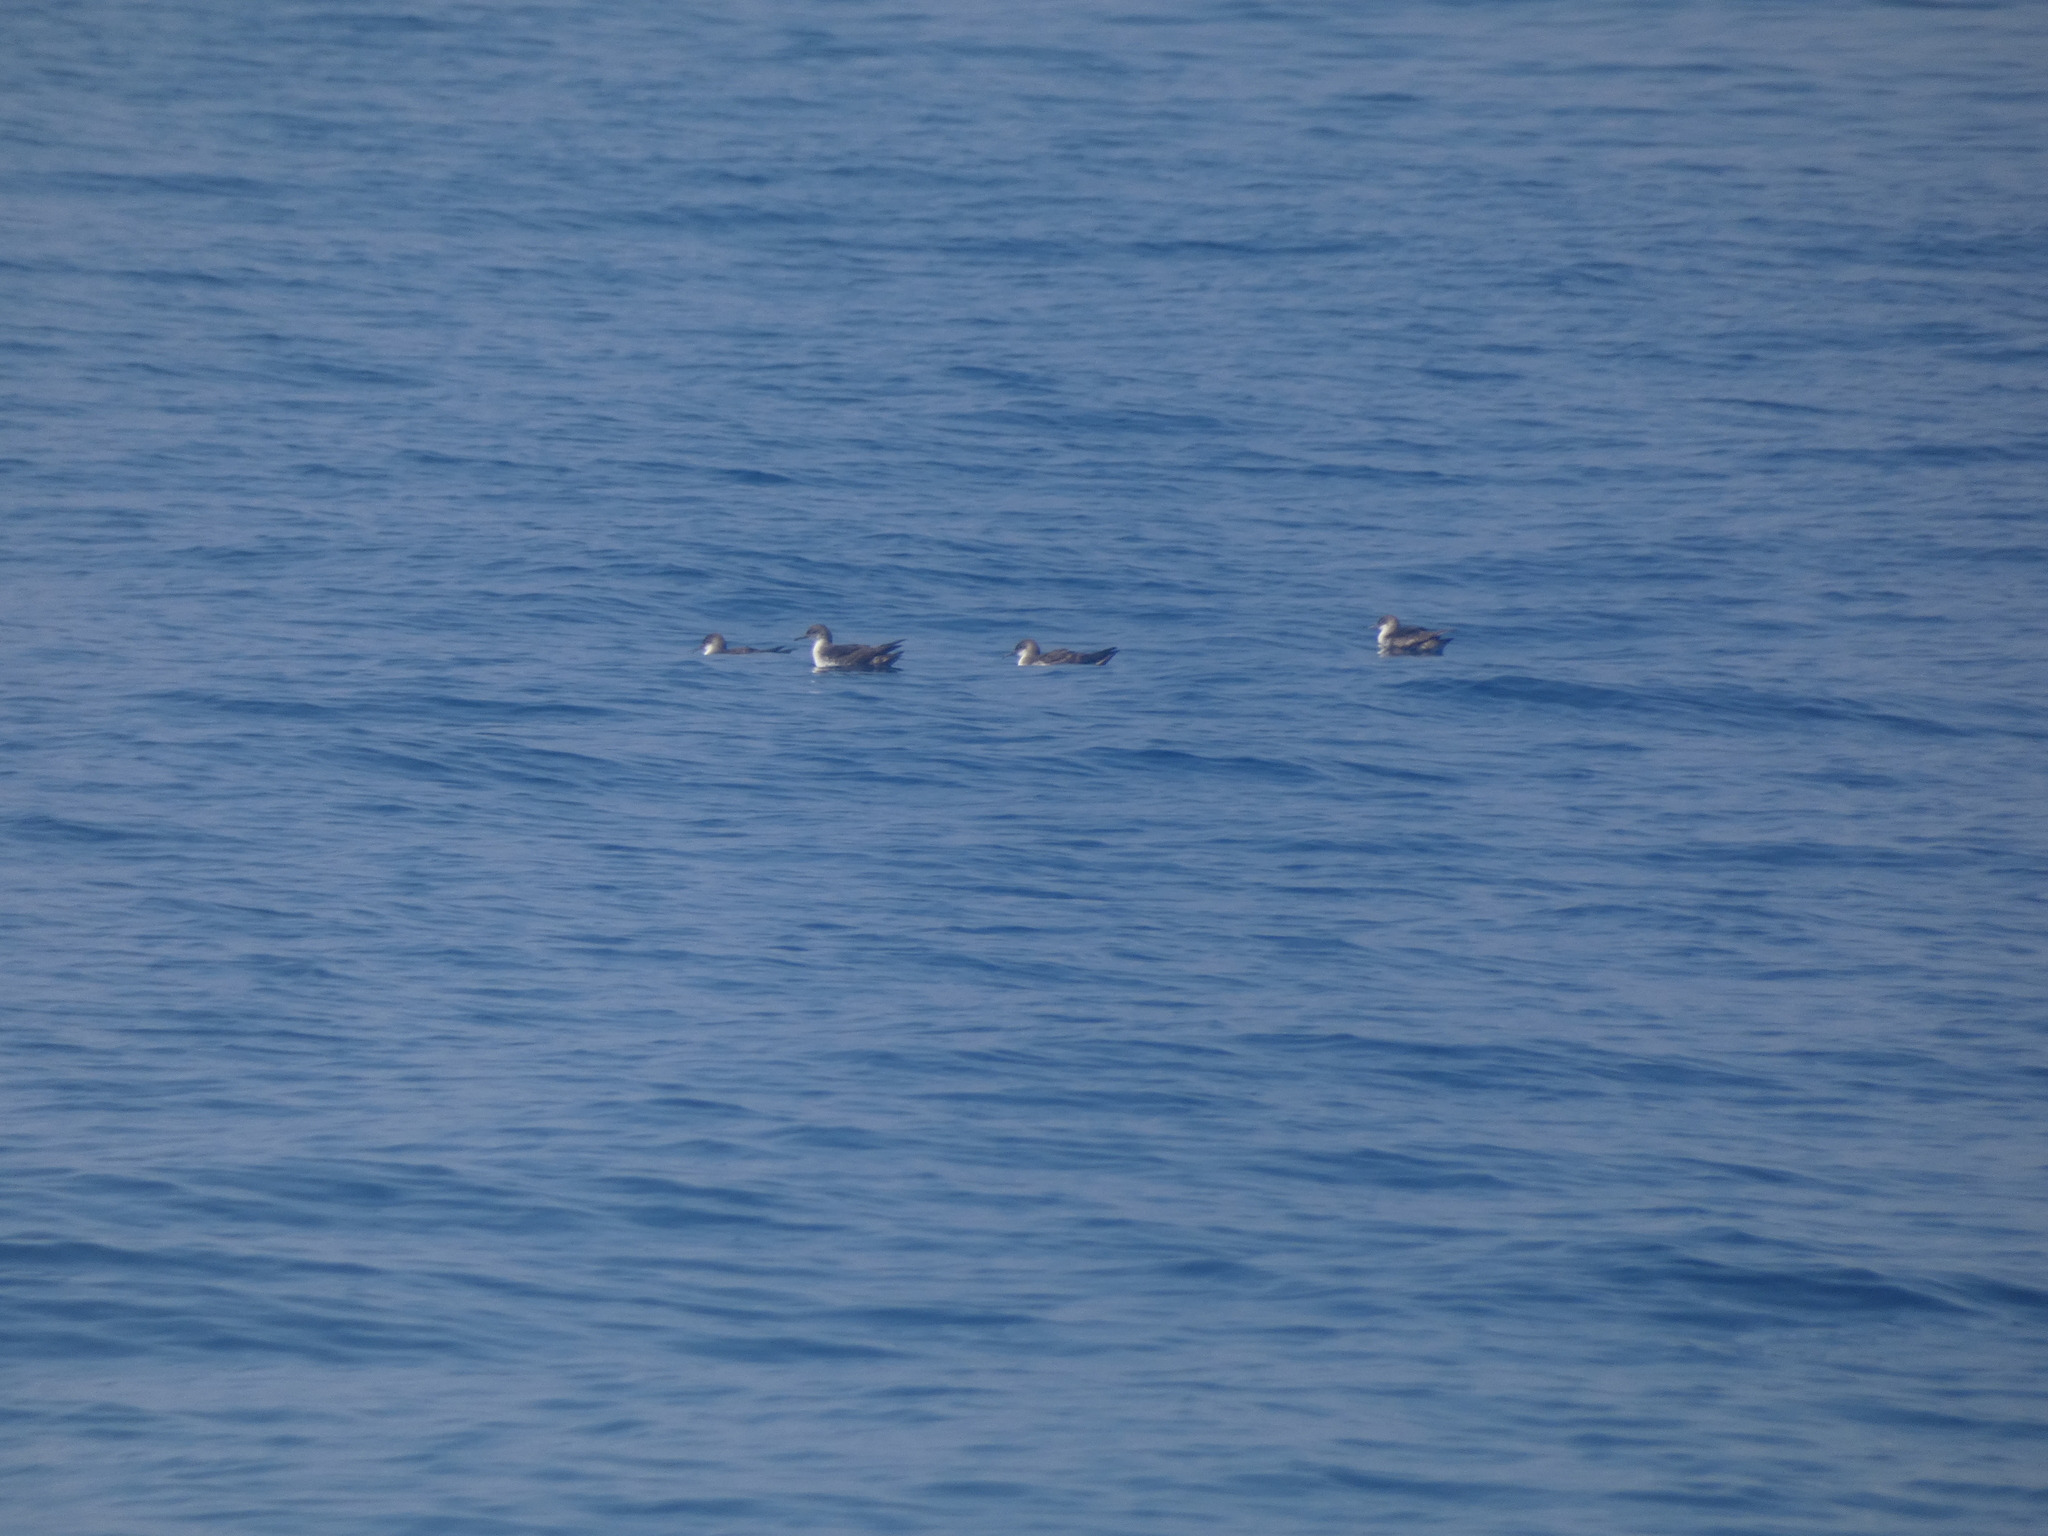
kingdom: Animalia
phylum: Chordata
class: Aves
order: Procellariiformes
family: Procellariidae
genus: Puffinus
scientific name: Puffinus yelkouan
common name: Yelkouan shearwater
